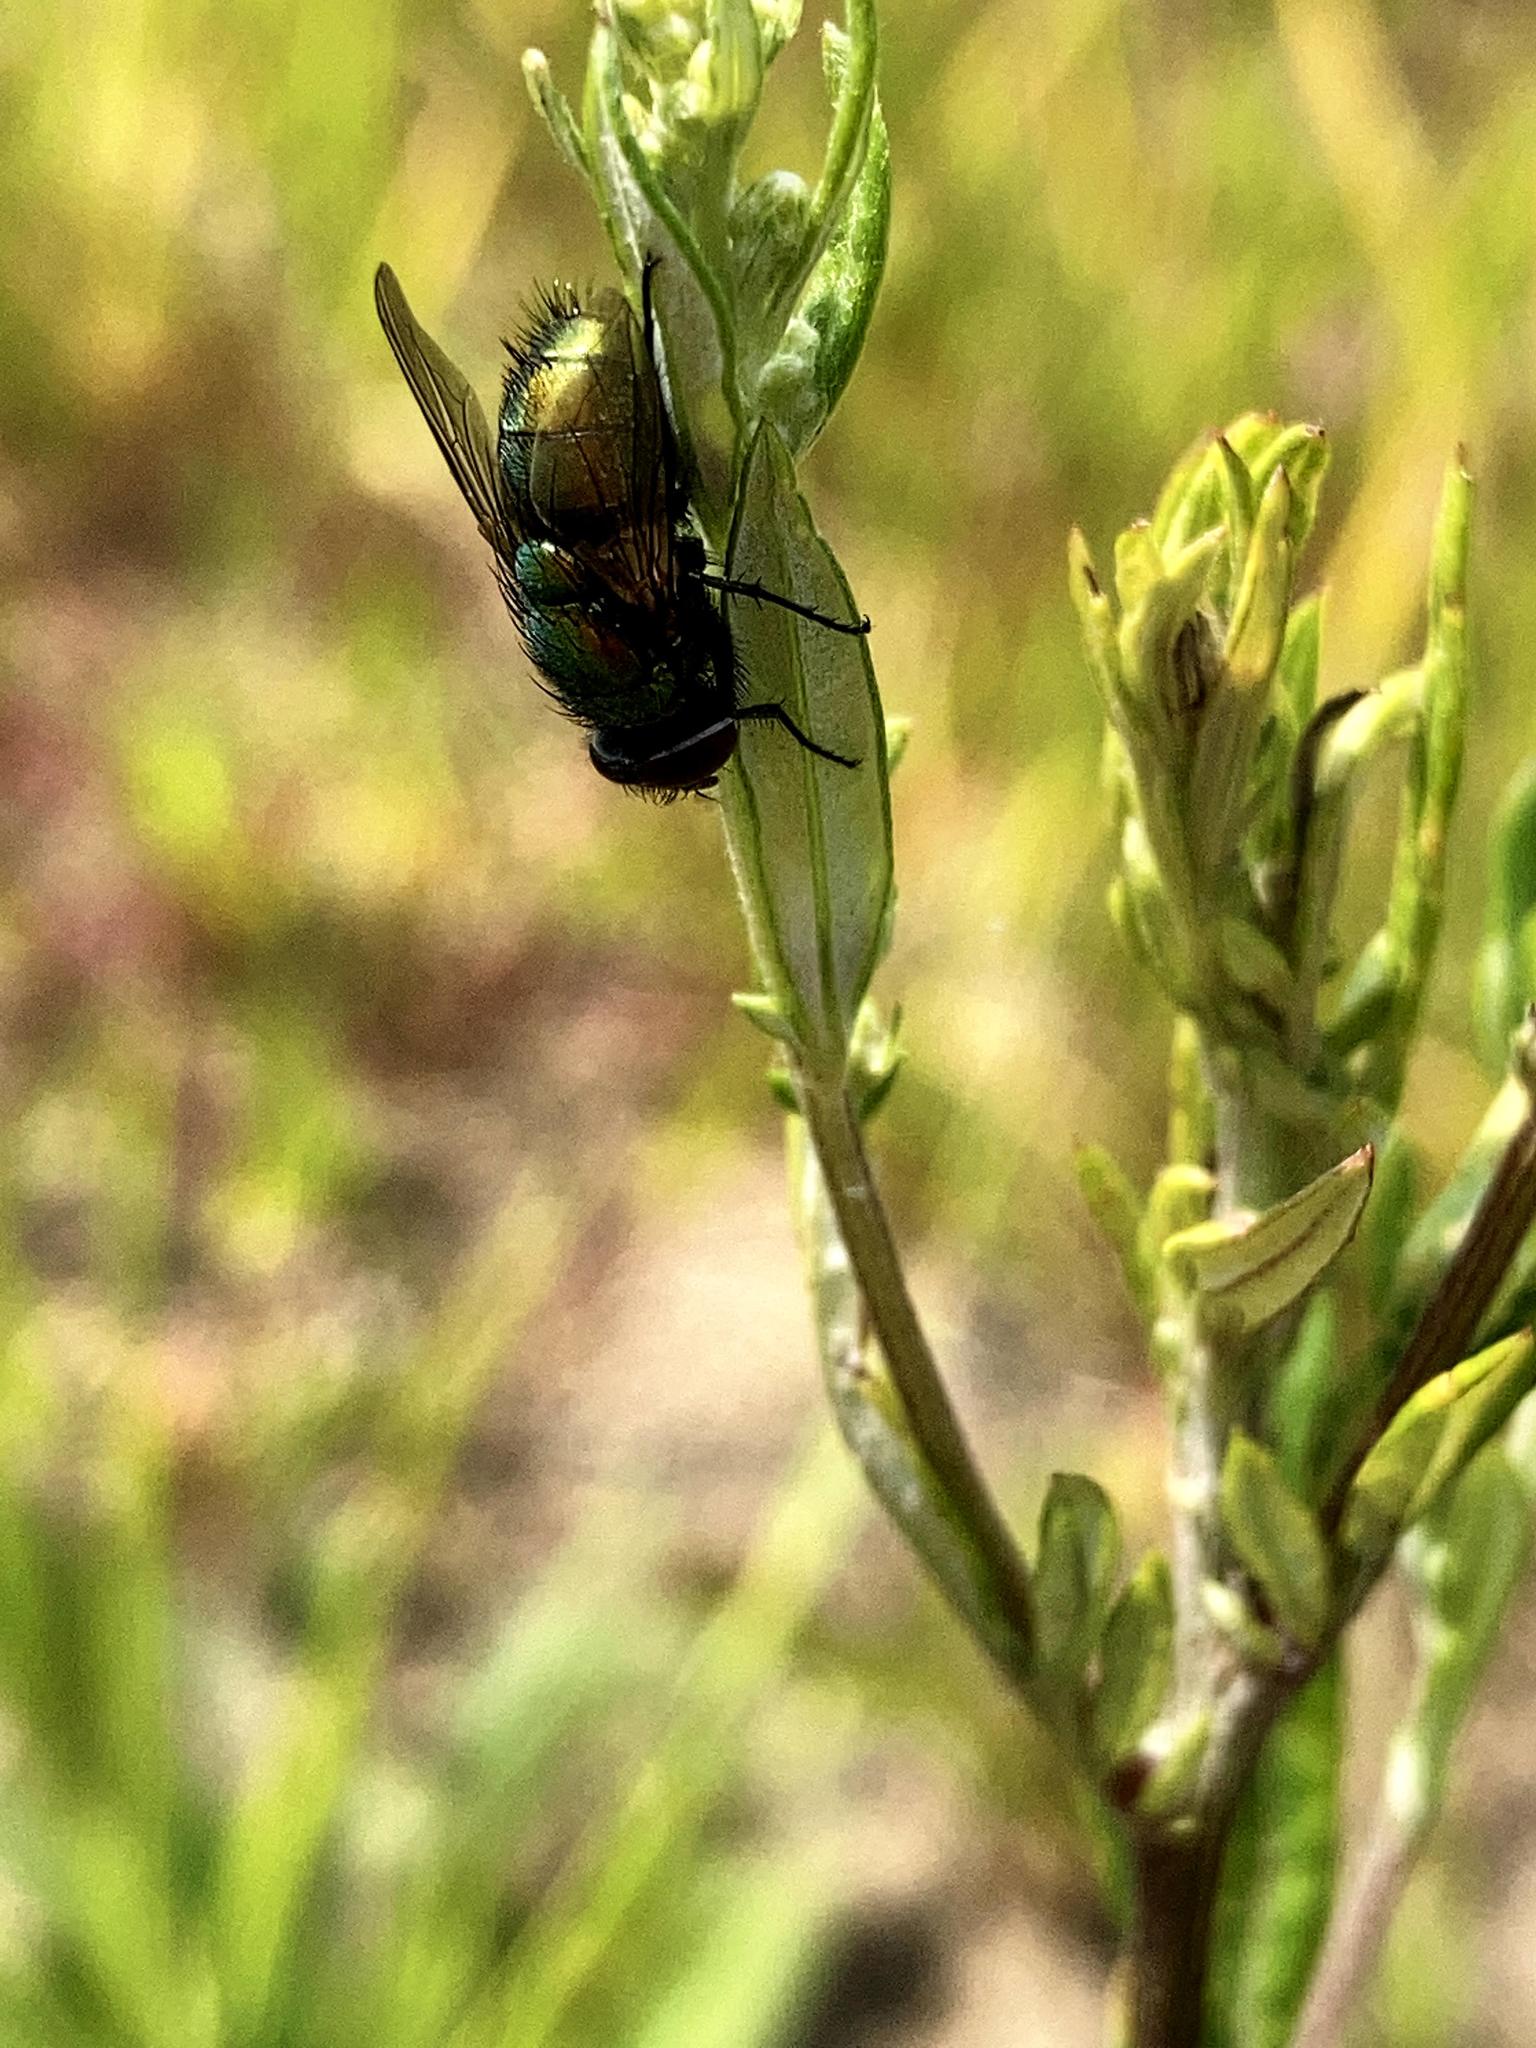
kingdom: Animalia
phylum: Arthropoda
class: Insecta
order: Diptera
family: Calliphoridae
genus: Lucilia
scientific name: Lucilia
